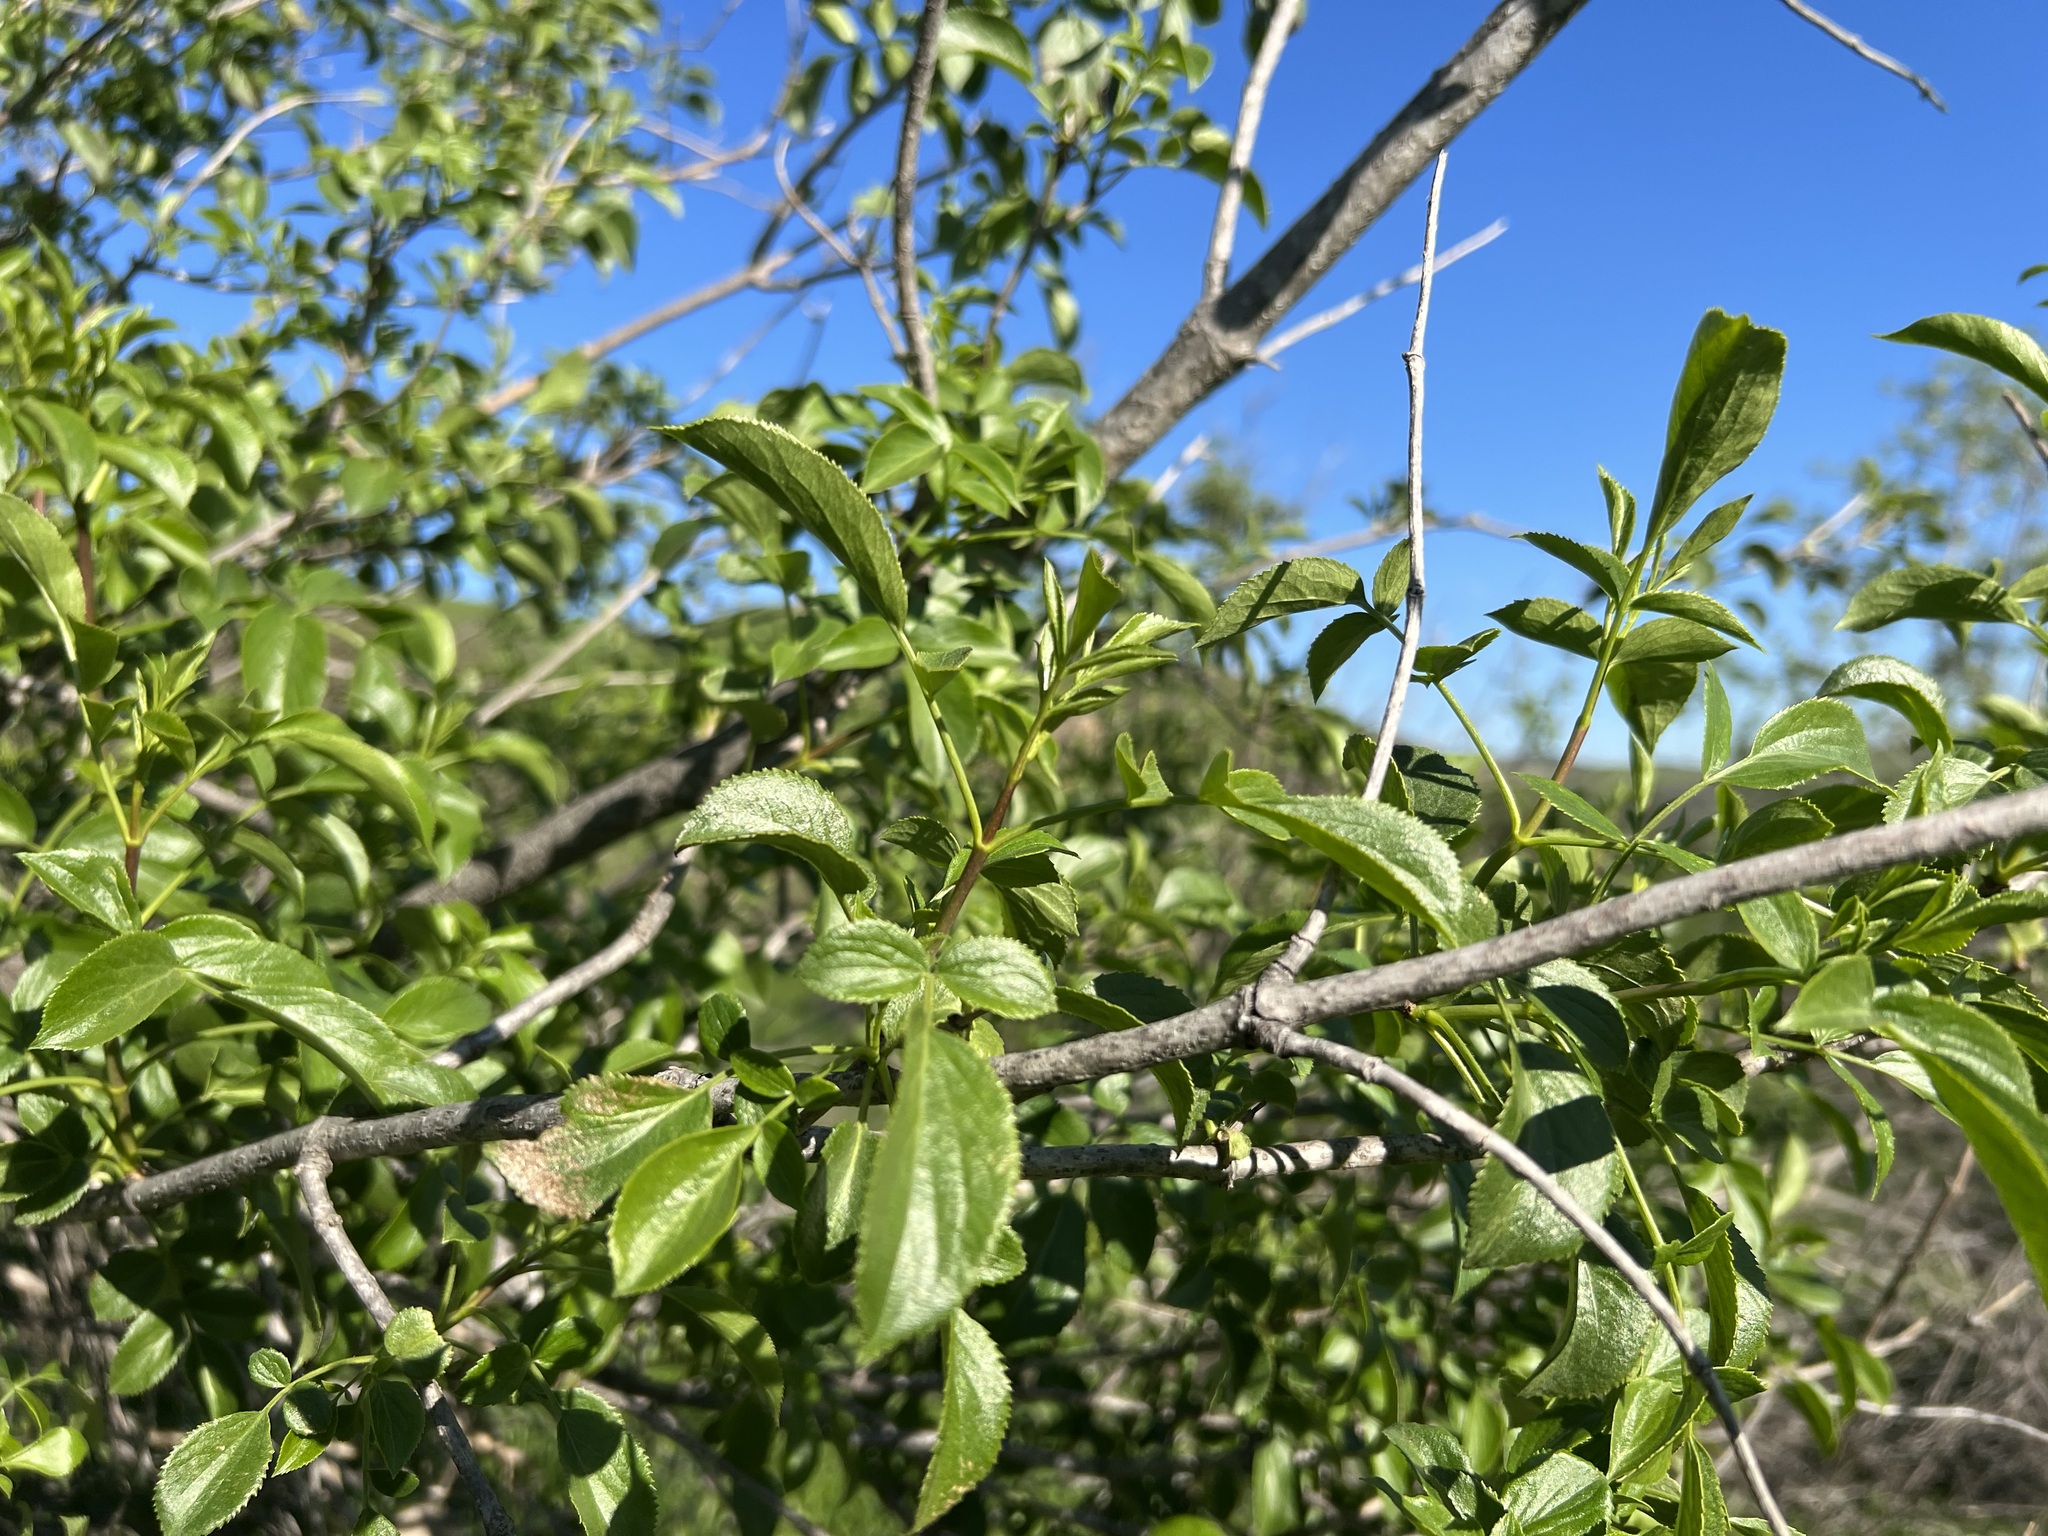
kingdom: Plantae
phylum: Tracheophyta
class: Magnoliopsida
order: Dipsacales
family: Viburnaceae
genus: Sambucus
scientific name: Sambucus cerulea
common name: Blue elder
